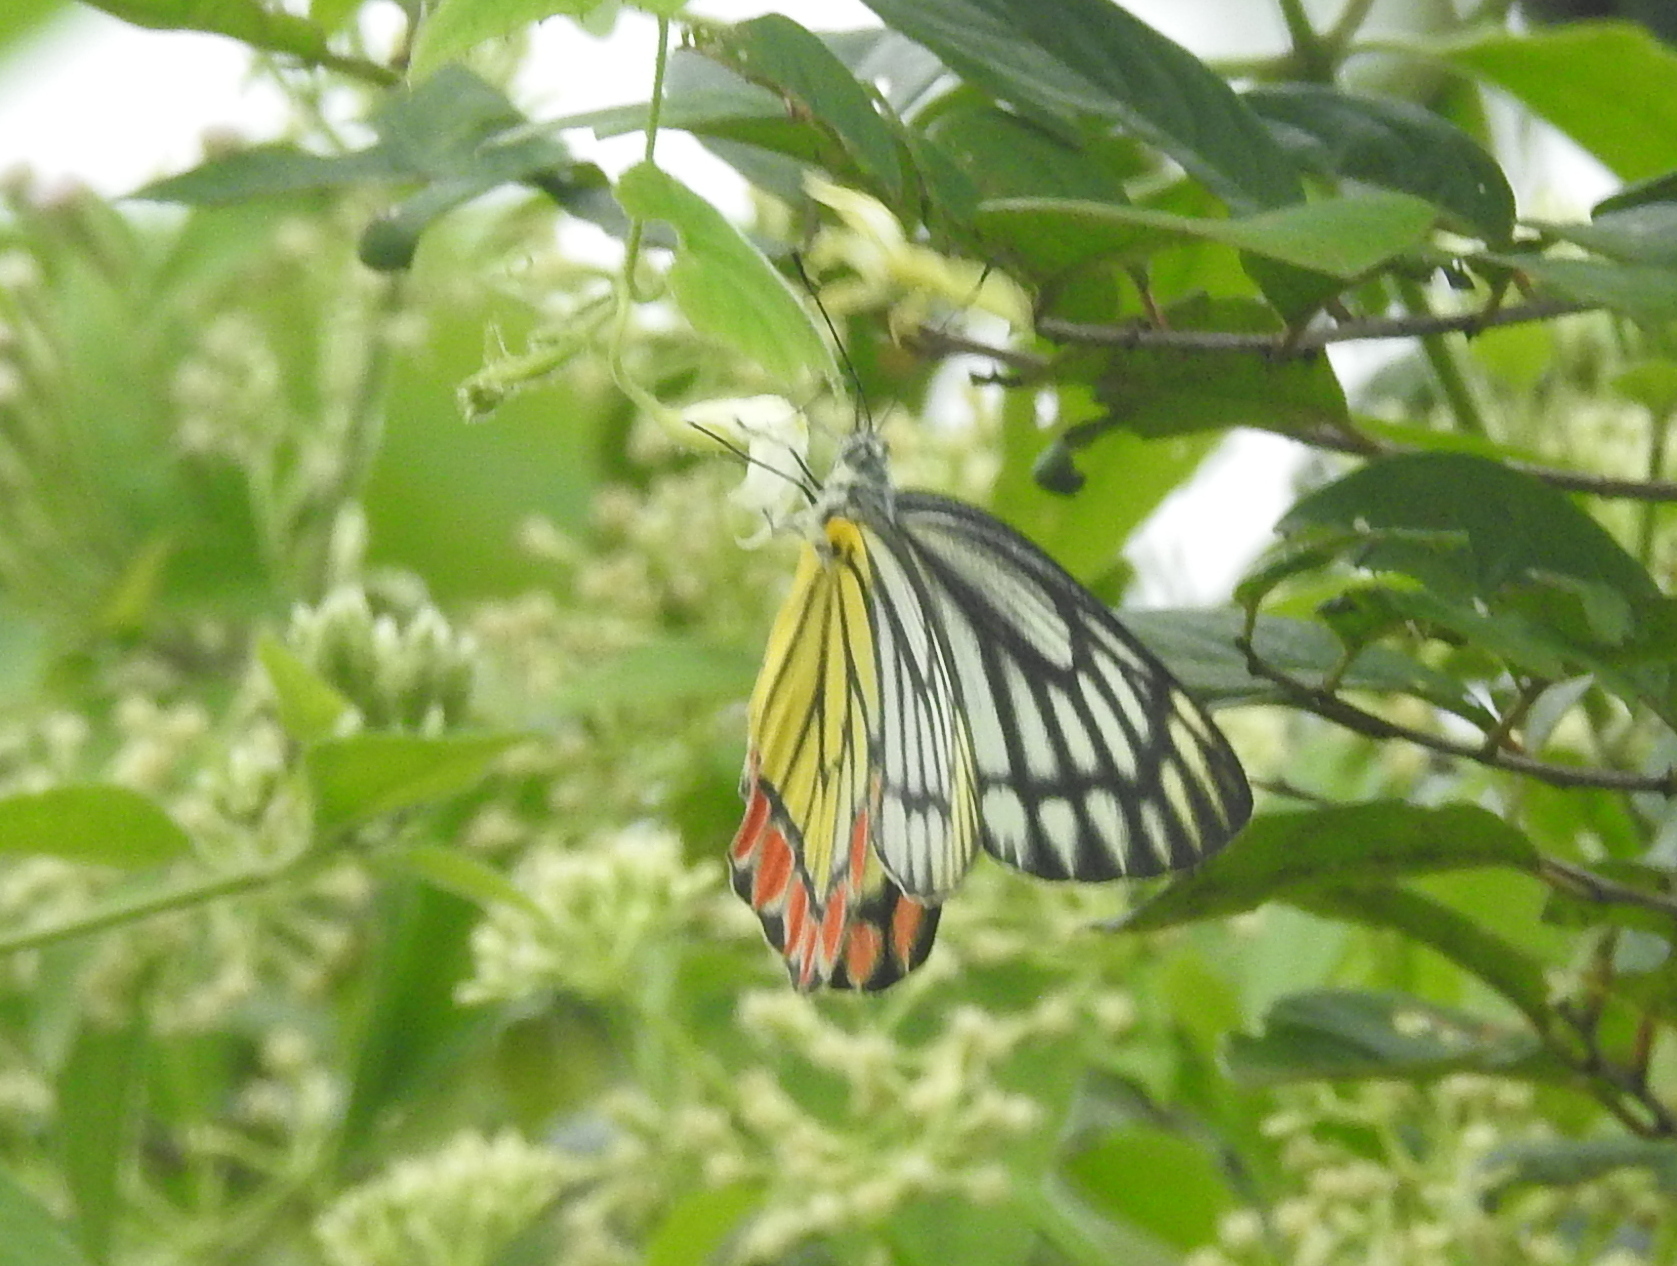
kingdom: Animalia
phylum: Arthropoda
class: Insecta
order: Lepidoptera
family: Pieridae
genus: Delias
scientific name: Delias eucharis
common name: Common jezebel
